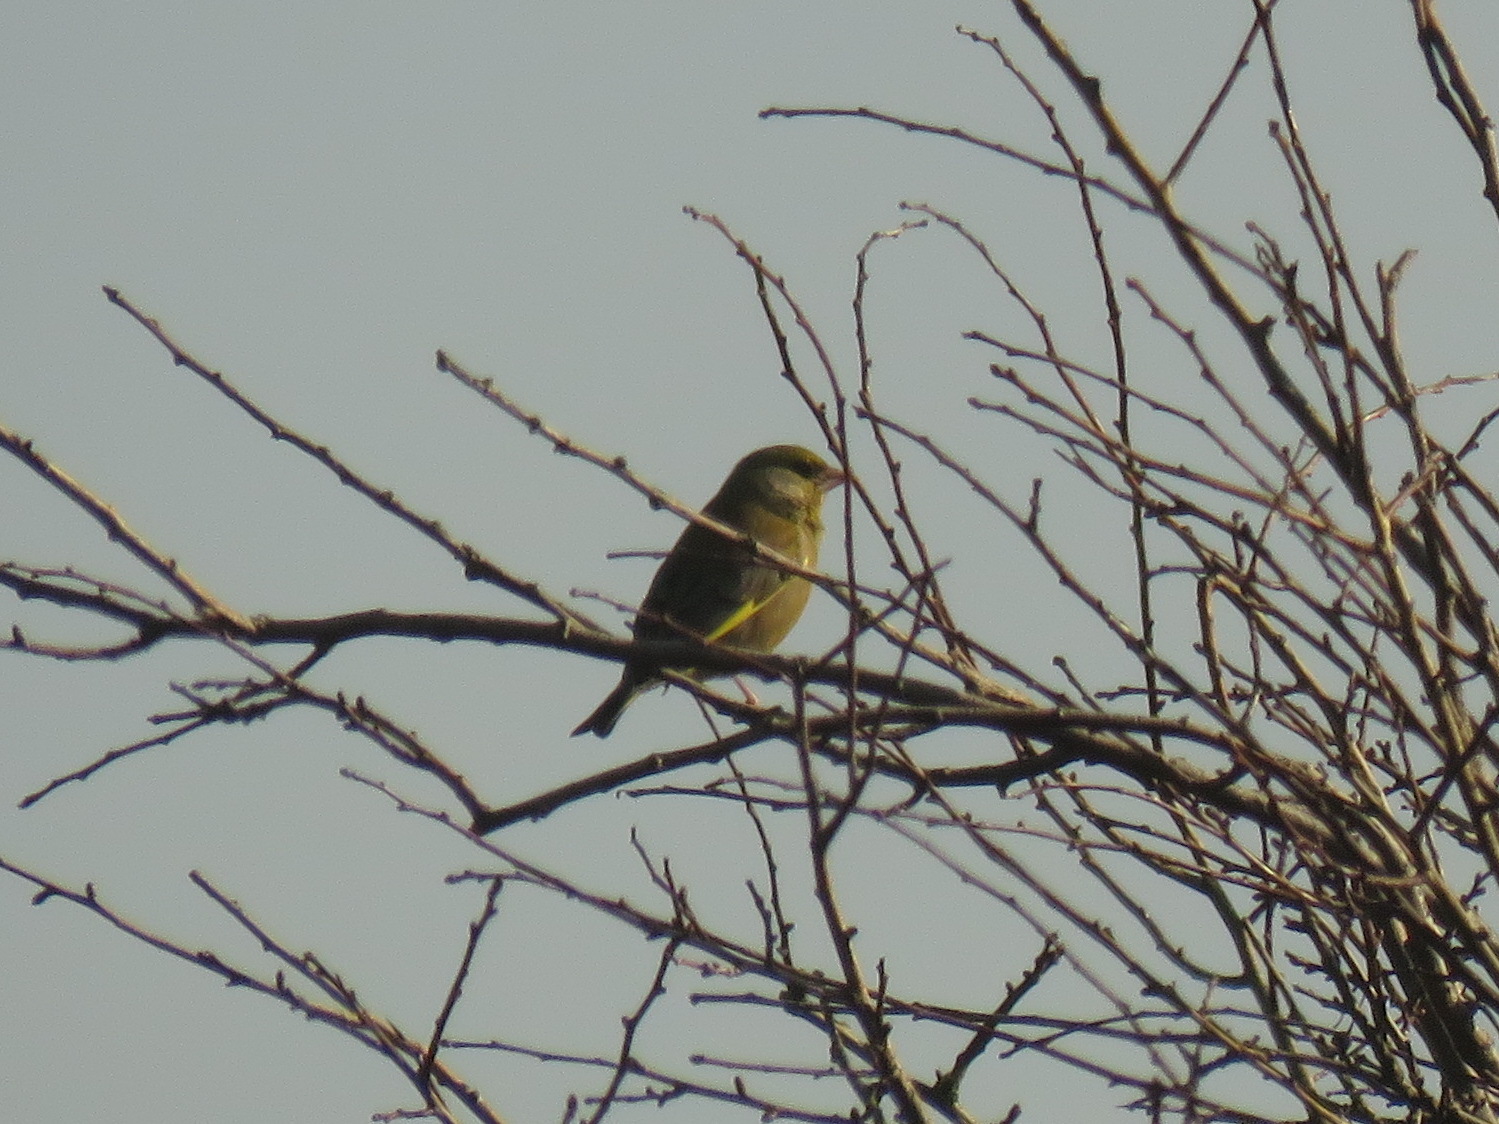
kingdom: Plantae
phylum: Tracheophyta
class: Liliopsida
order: Poales
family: Poaceae
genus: Chloris
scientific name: Chloris chloris
